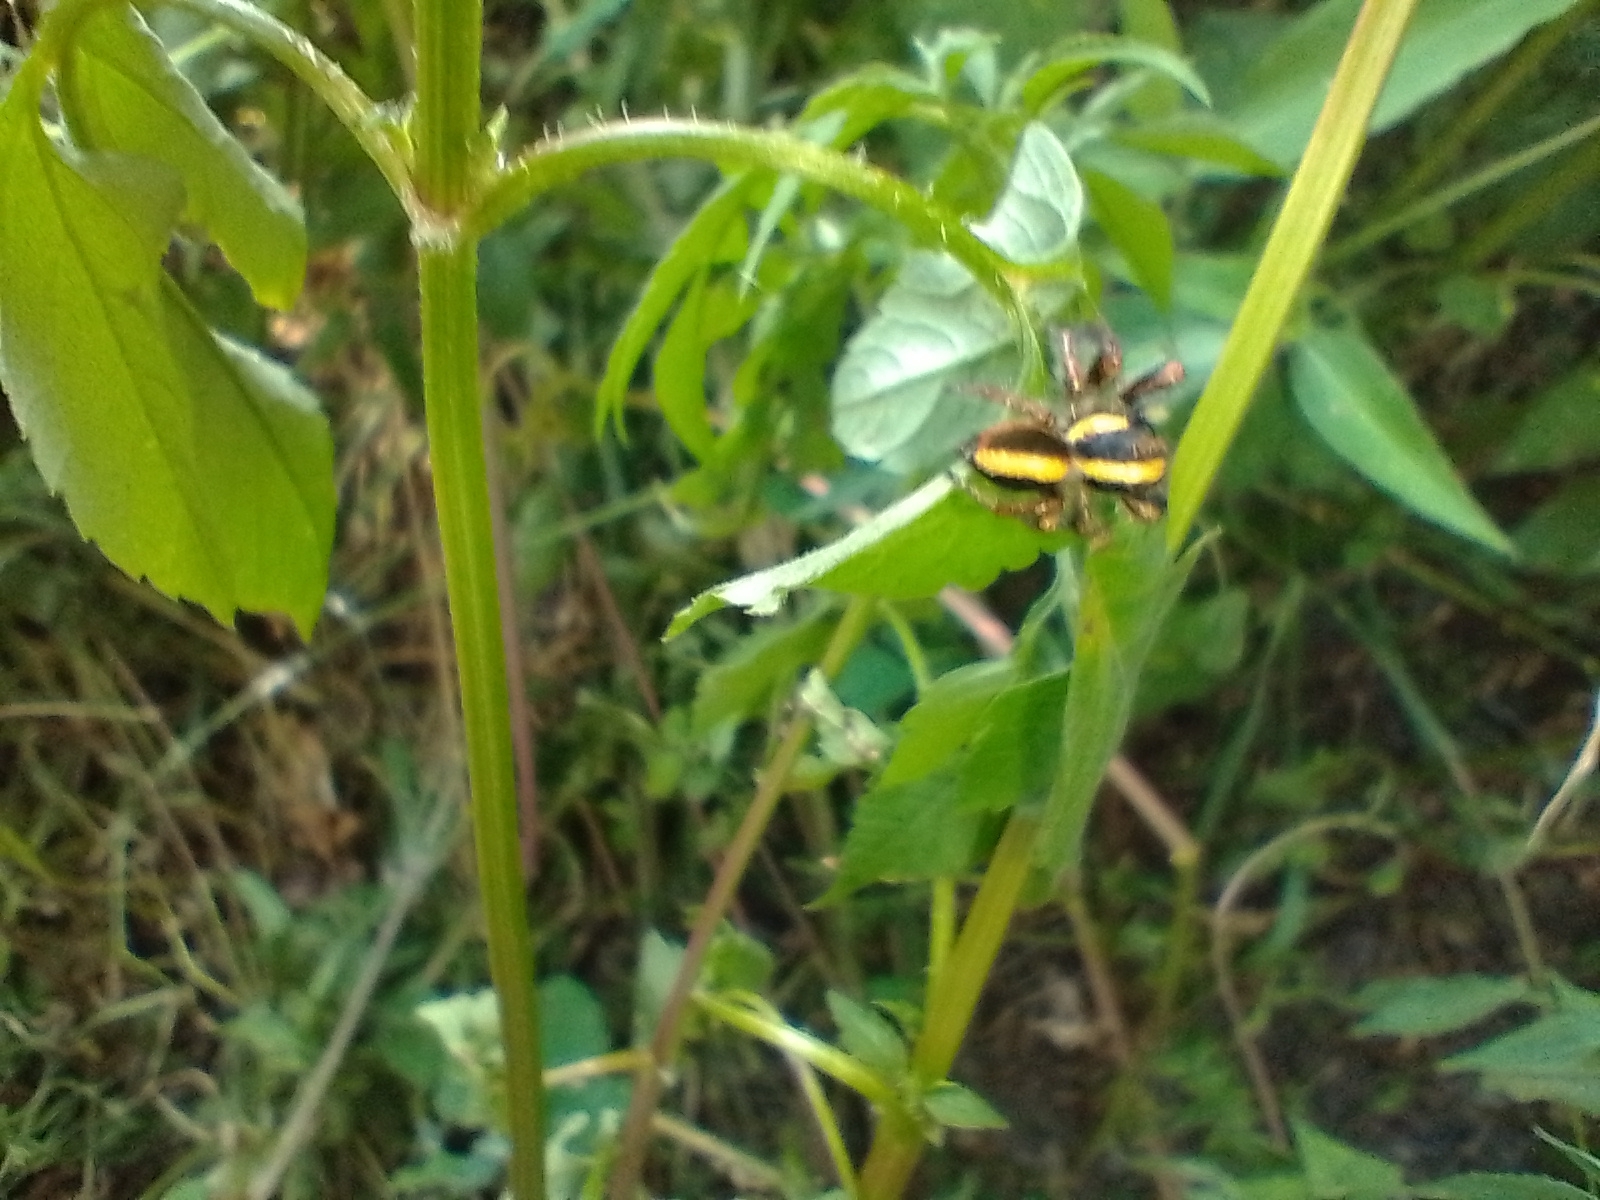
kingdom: Animalia
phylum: Arthropoda
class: Arachnida
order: Araneae
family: Salticidae
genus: Megafreya
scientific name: Megafreya sutrix
